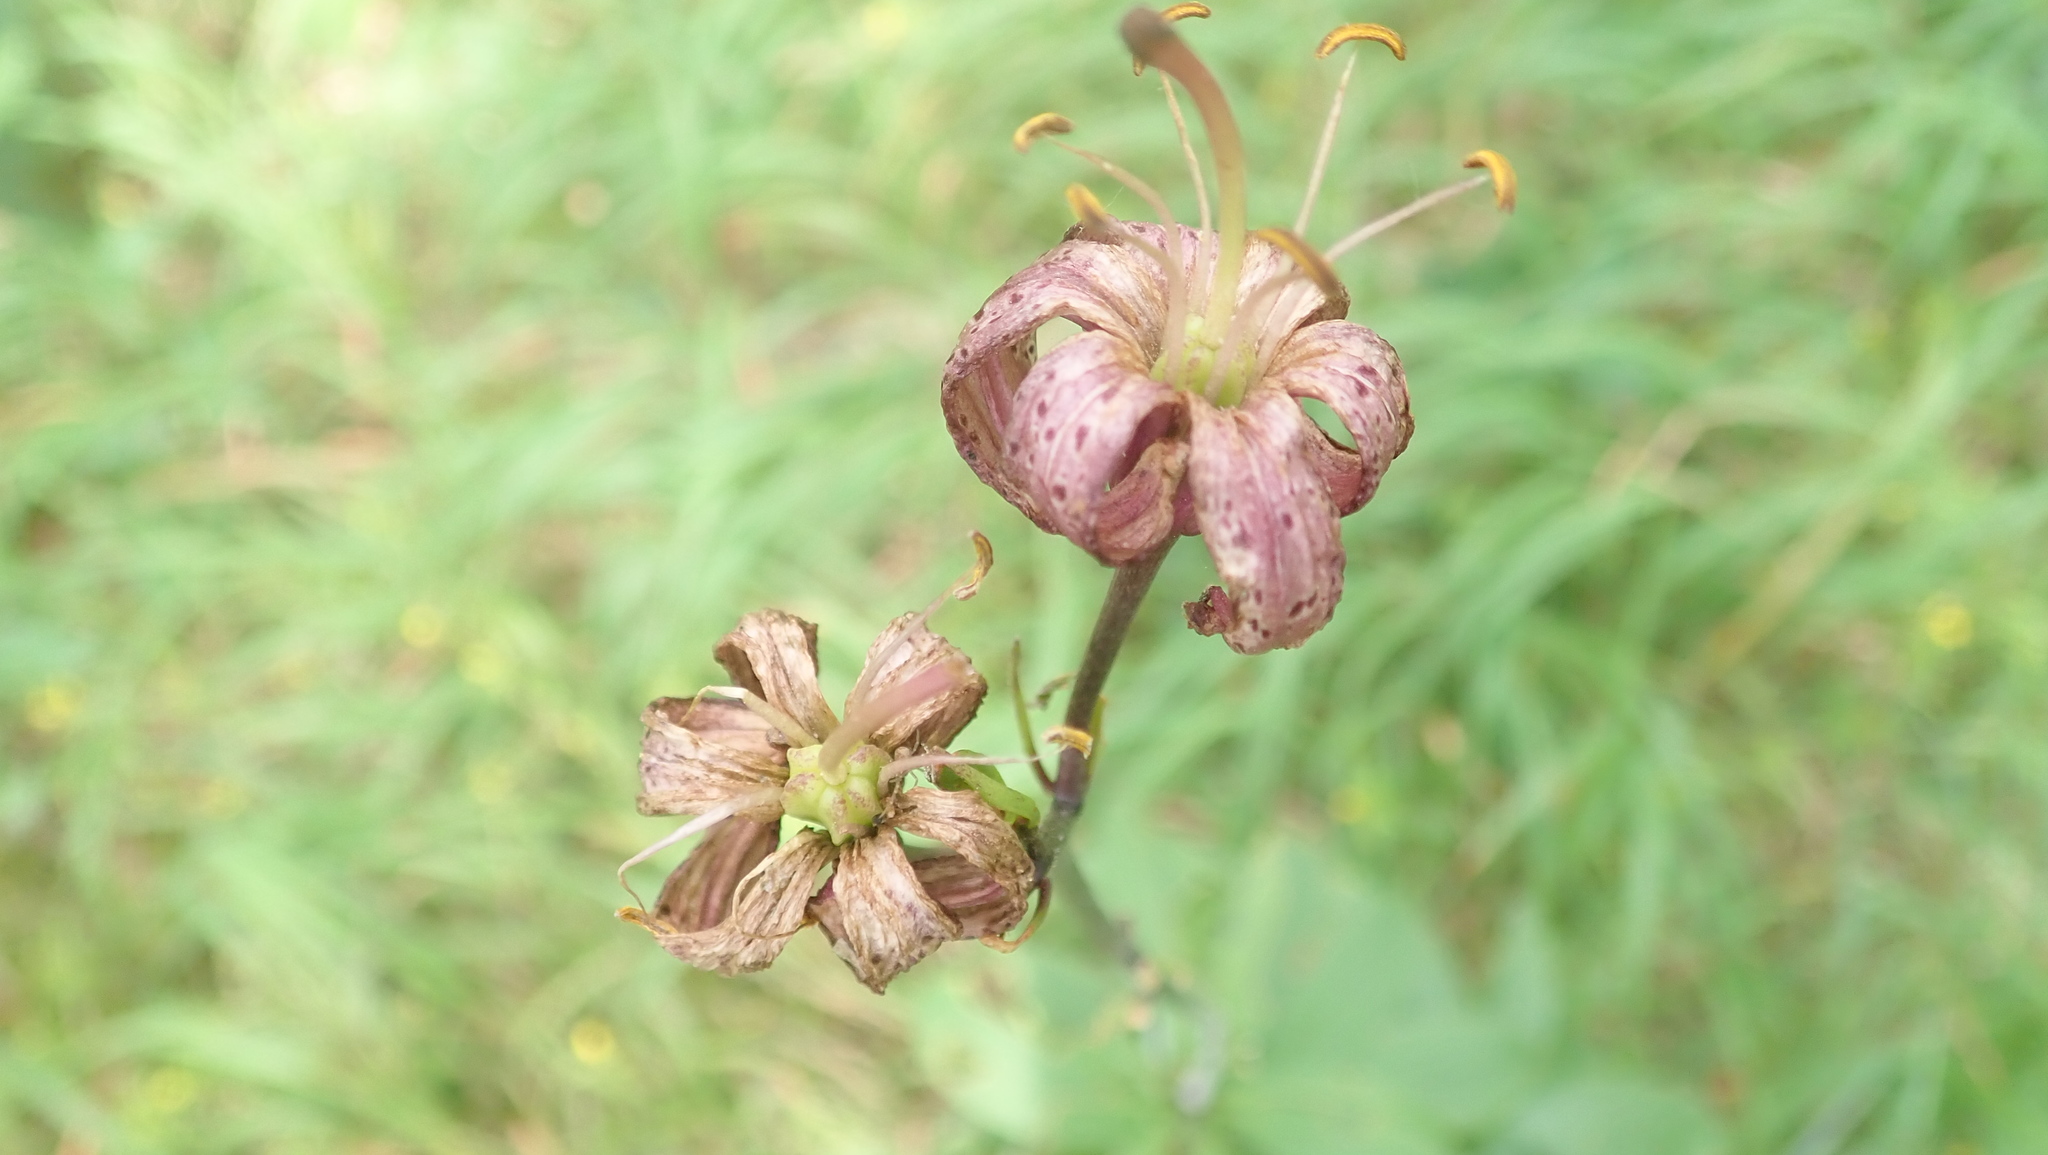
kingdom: Plantae
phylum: Tracheophyta
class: Liliopsida
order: Liliales
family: Liliaceae
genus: Lilium
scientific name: Lilium martagon
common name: Martagon lily
